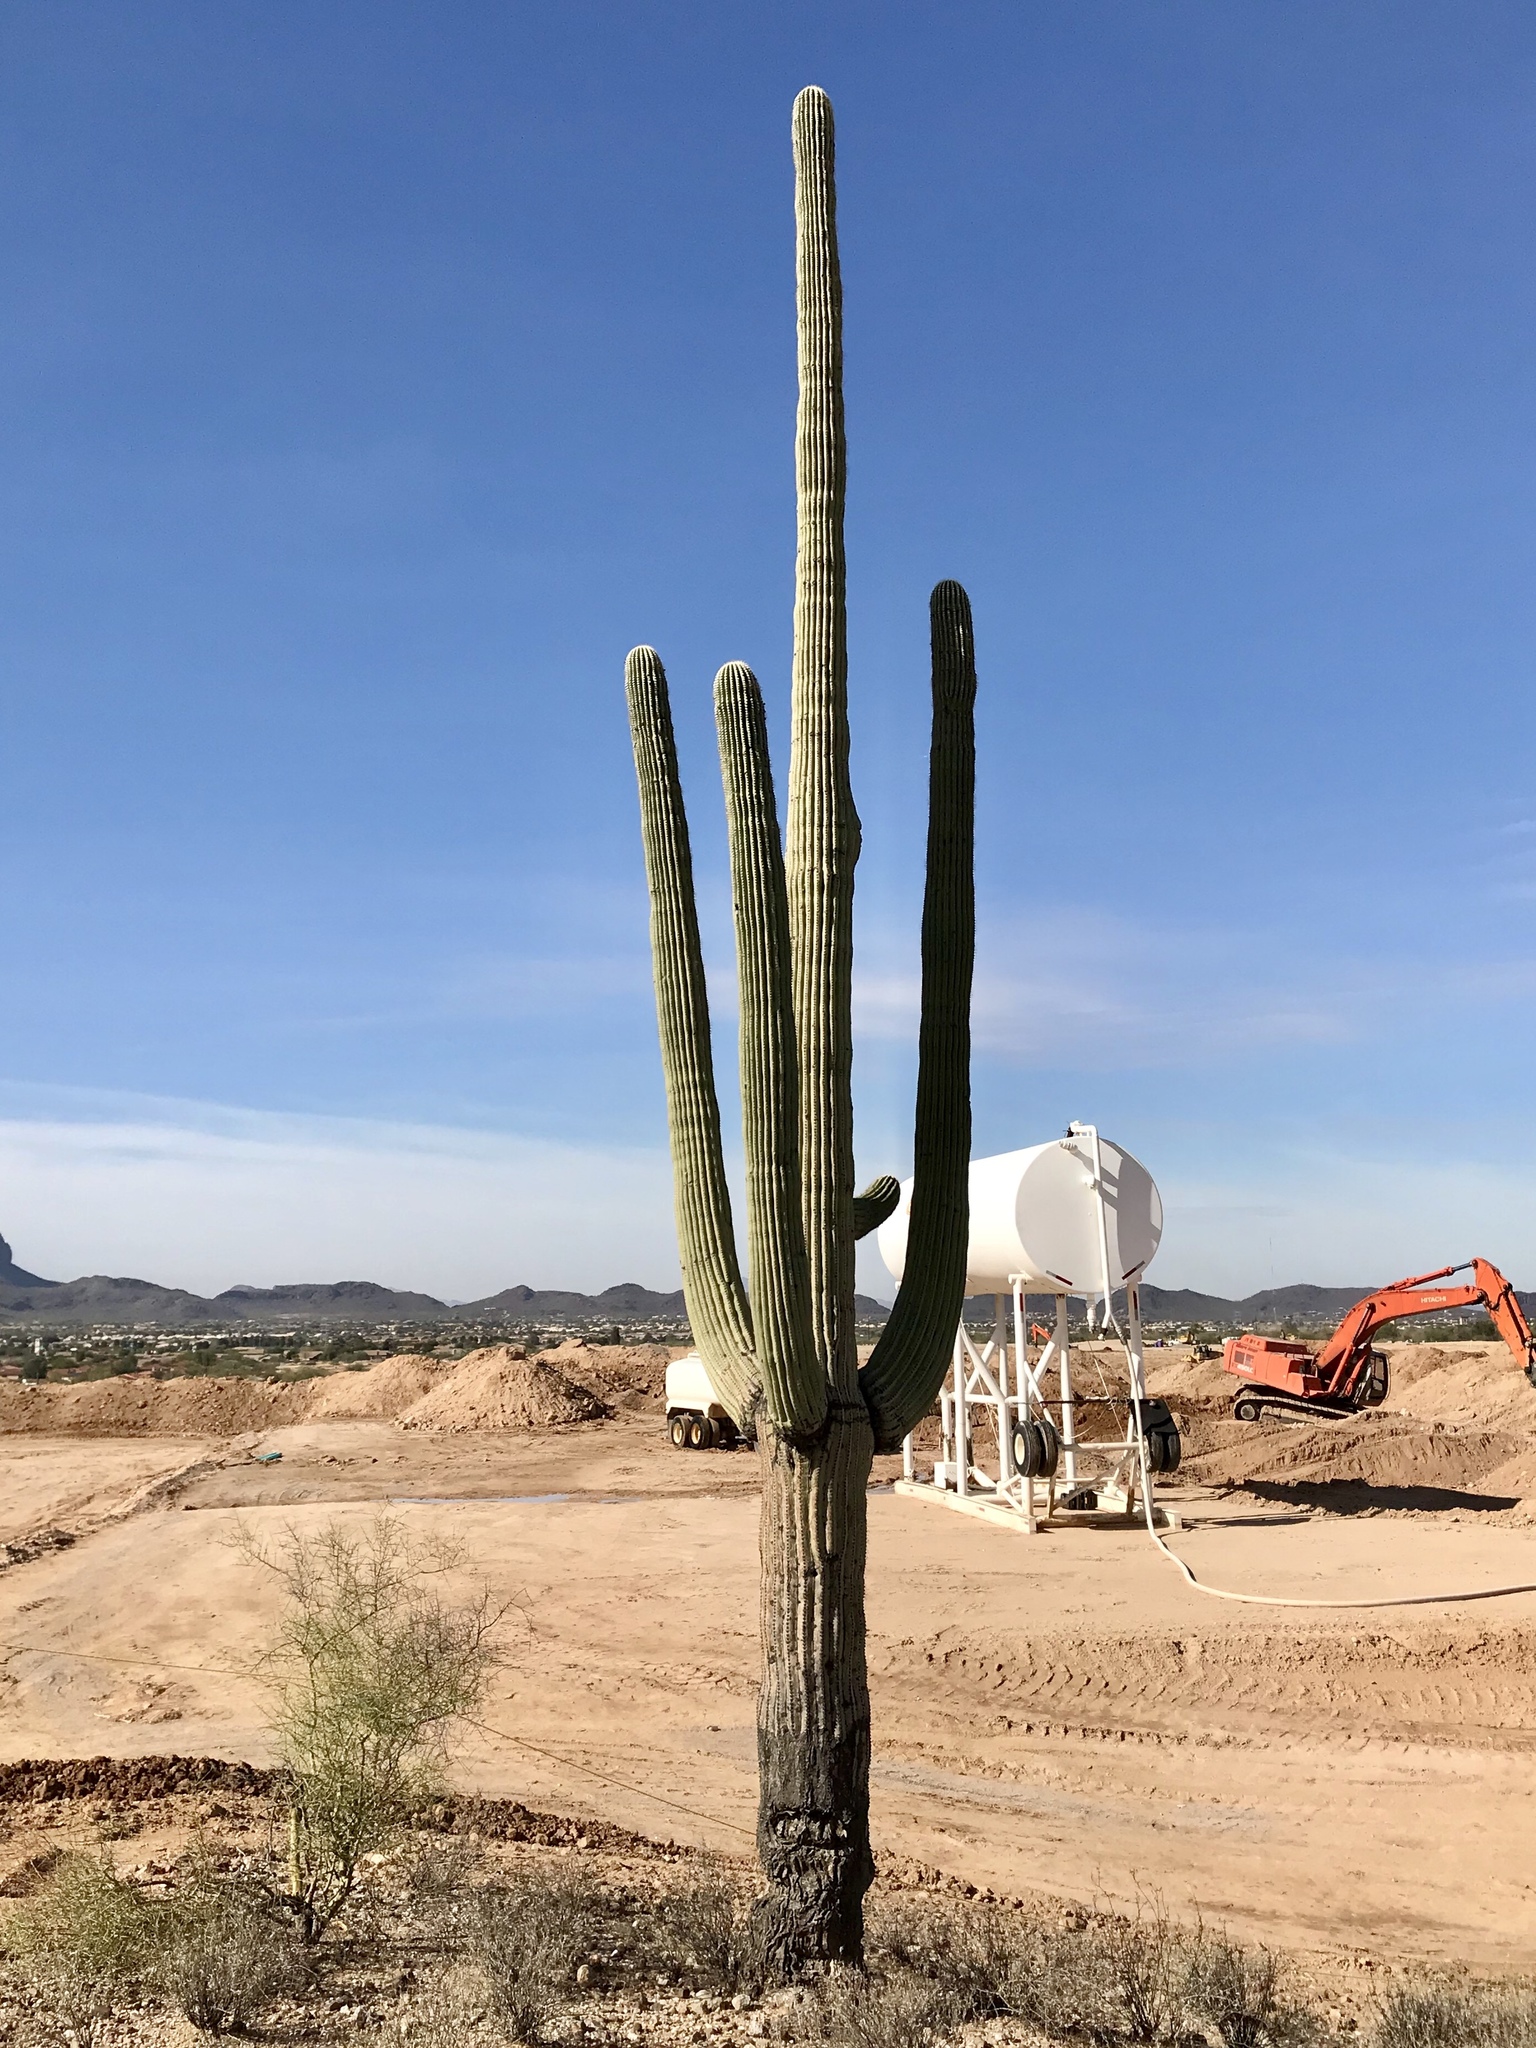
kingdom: Plantae
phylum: Tracheophyta
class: Magnoliopsida
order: Caryophyllales
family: Cactaceae
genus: Carnegiea
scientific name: Carnegiea gigantea
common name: Saguaro
